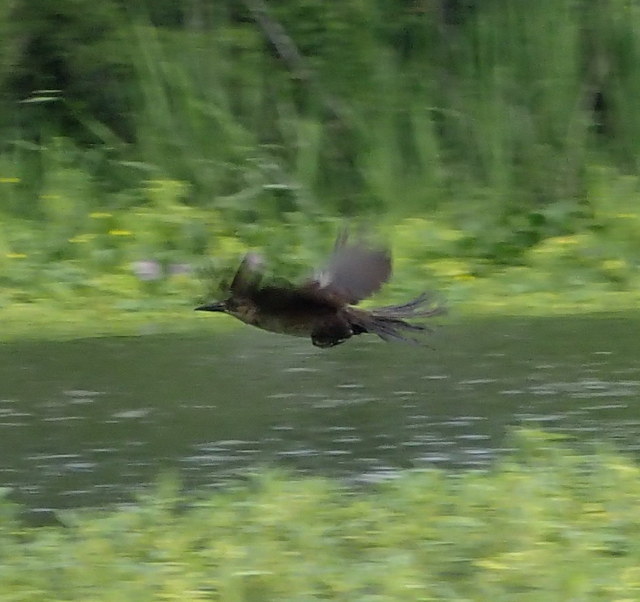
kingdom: Animalia
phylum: Chordata
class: Aves
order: Passeriformes
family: Icteridae
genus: Quiscalus
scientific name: Quiscalus major
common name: Boat-tailed grackle
